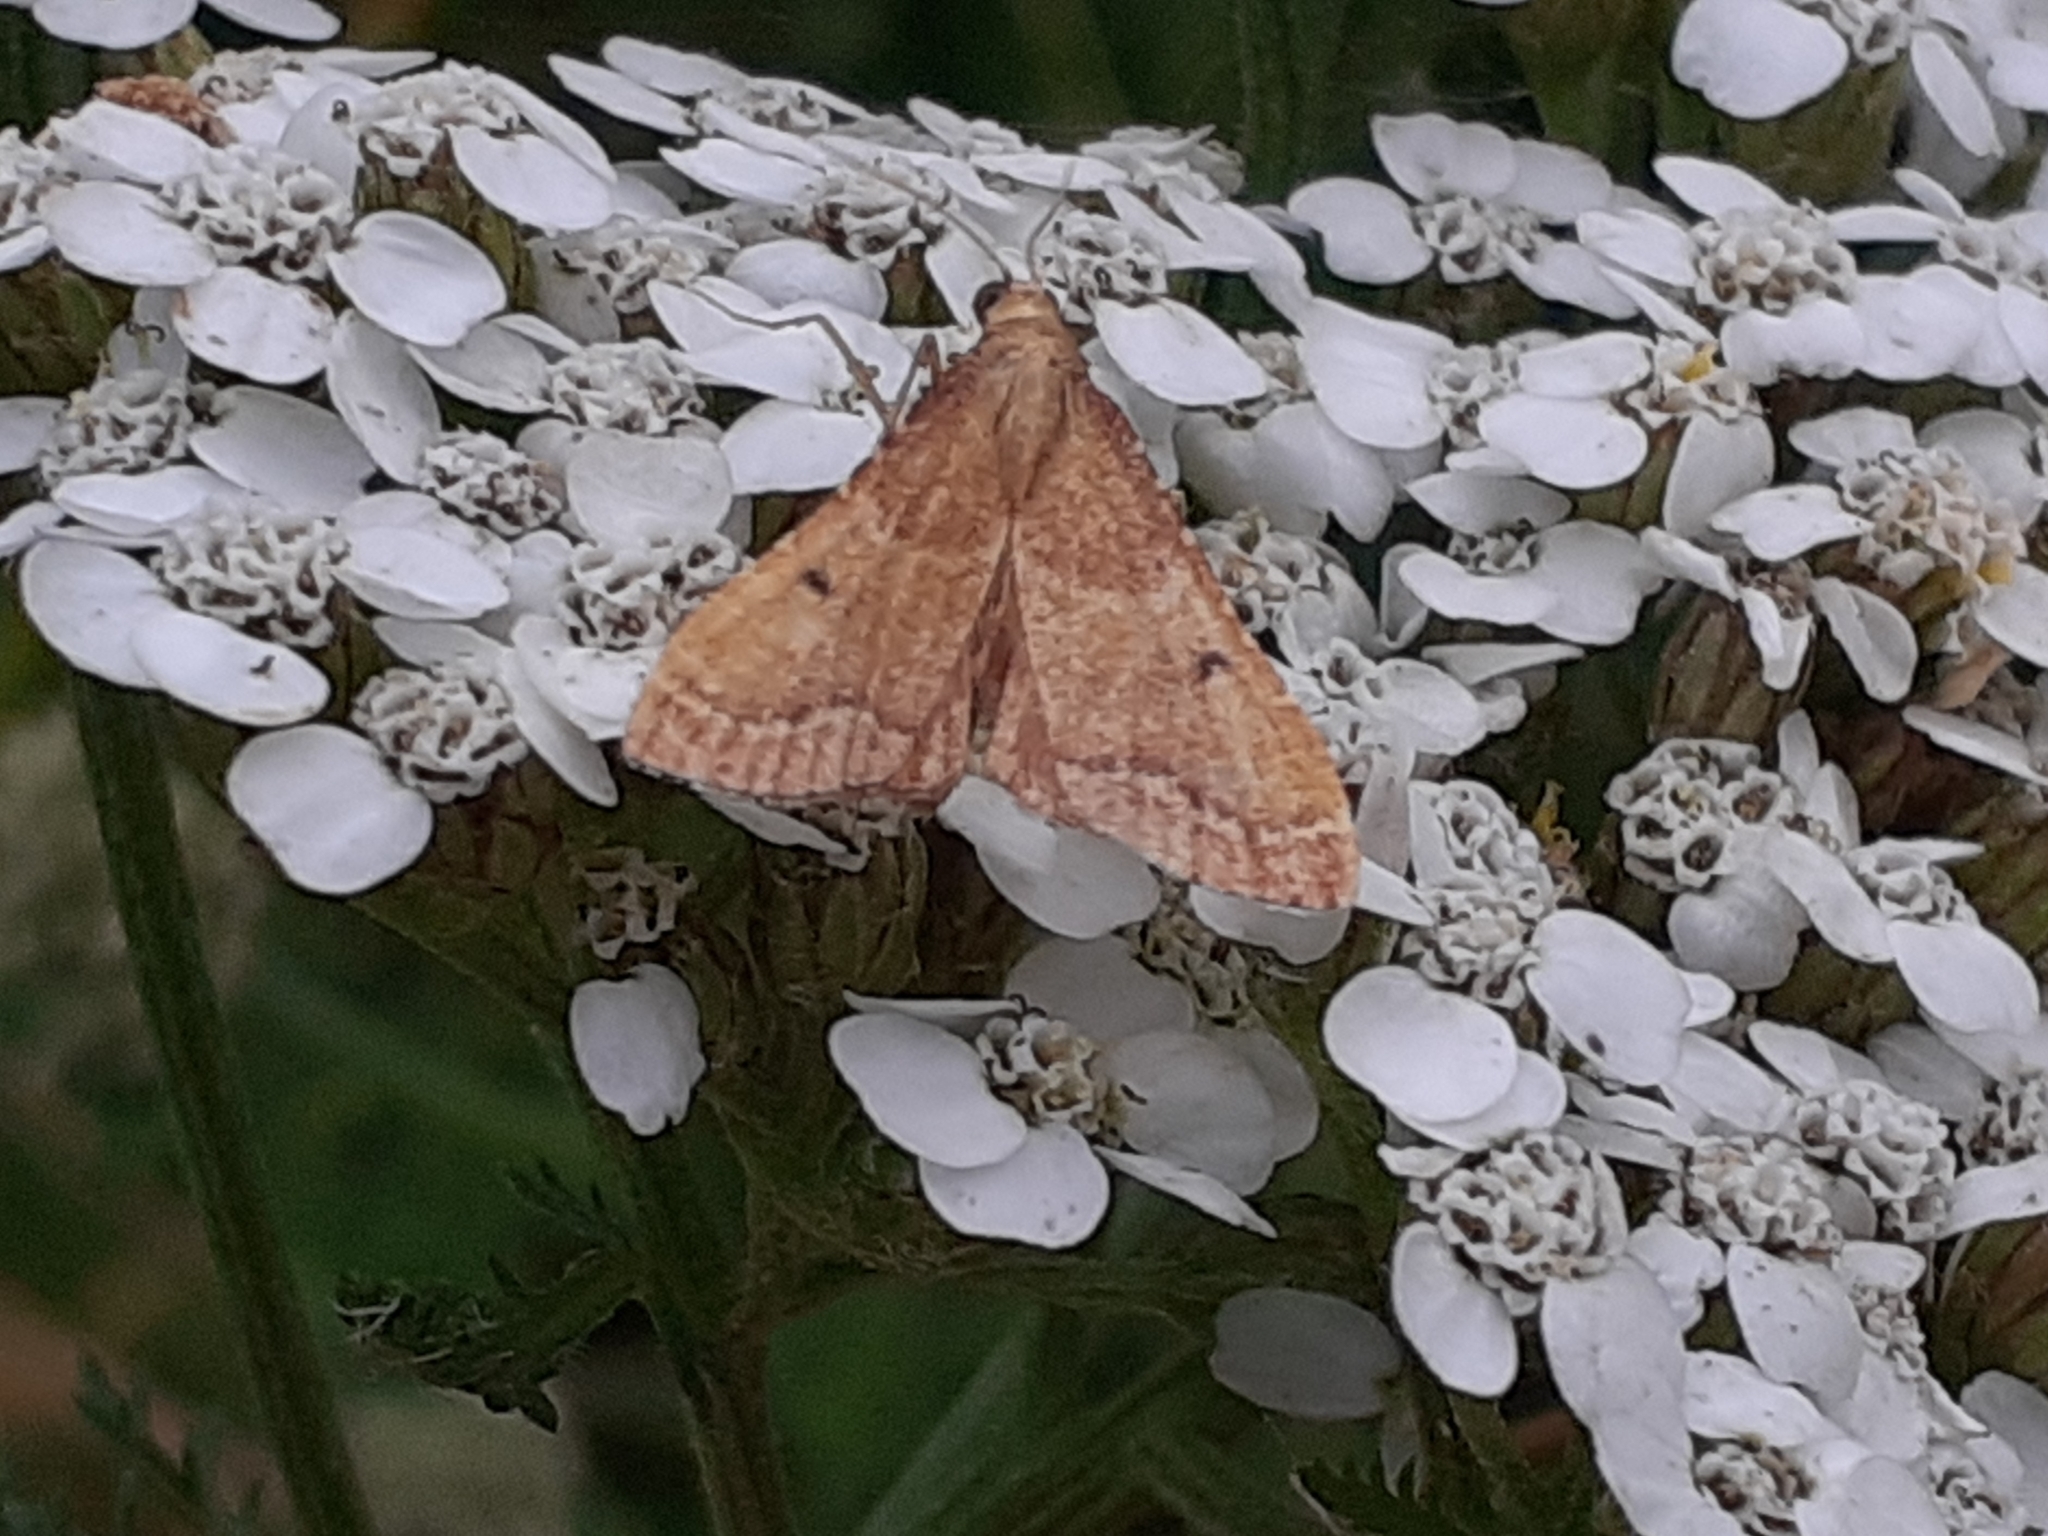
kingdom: Animalia
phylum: Arthropoda
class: Insecta
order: Lepidoptera
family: Pyralidae
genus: Endotricha
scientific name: Endotricha flammealis
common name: Rosy tabby
